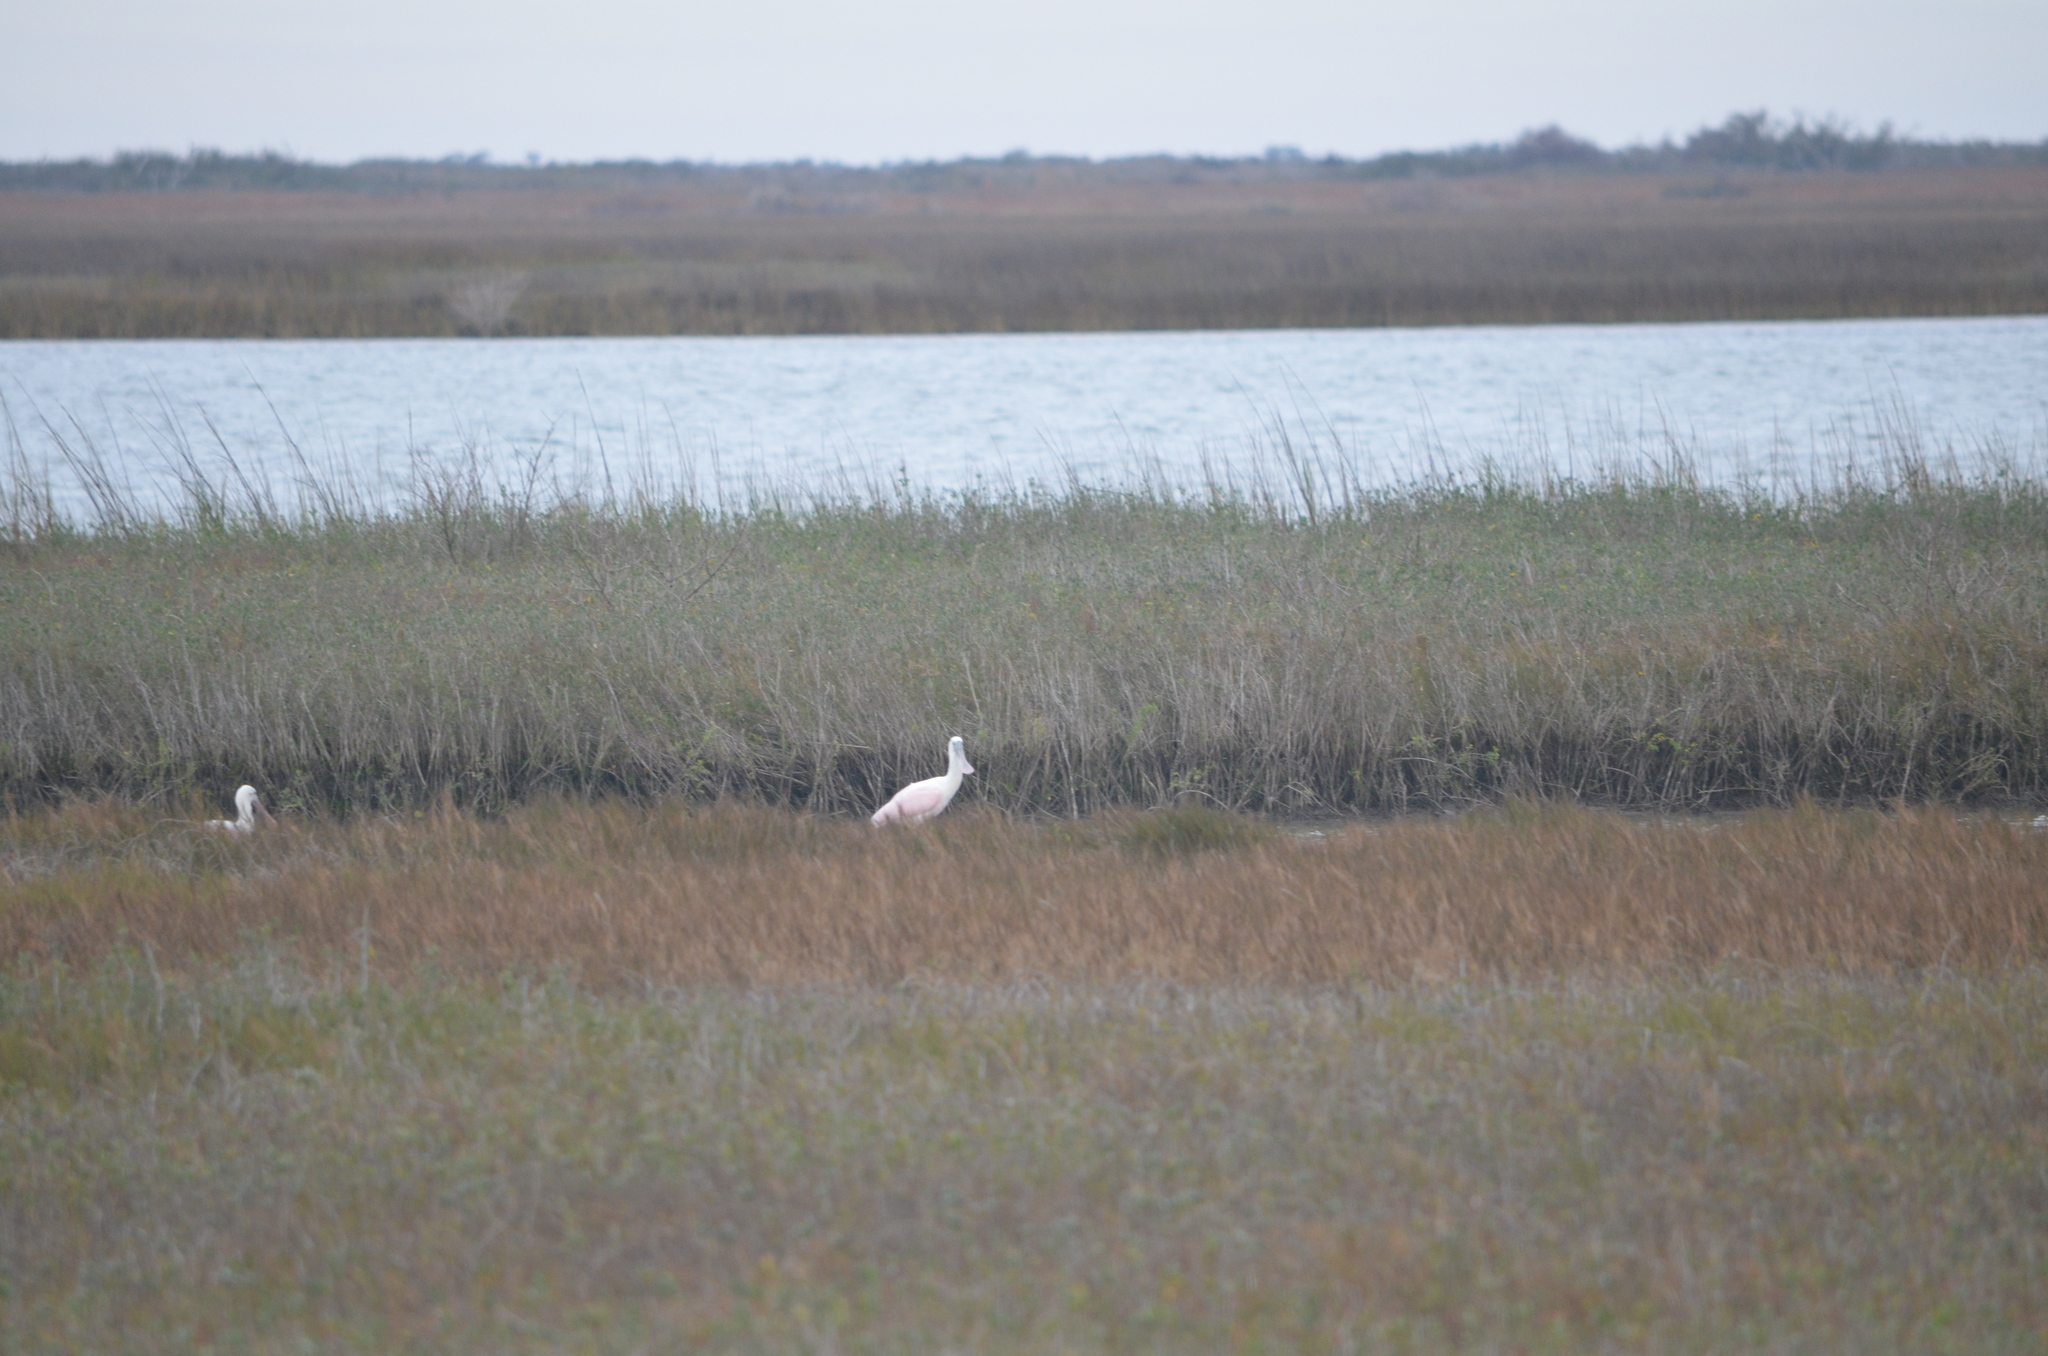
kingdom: Animalia
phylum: Chordata
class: Aves
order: Pelecaniformes
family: Threskiornithidae
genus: Platalea
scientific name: Platalea ajaja
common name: Roseate spoonbill
